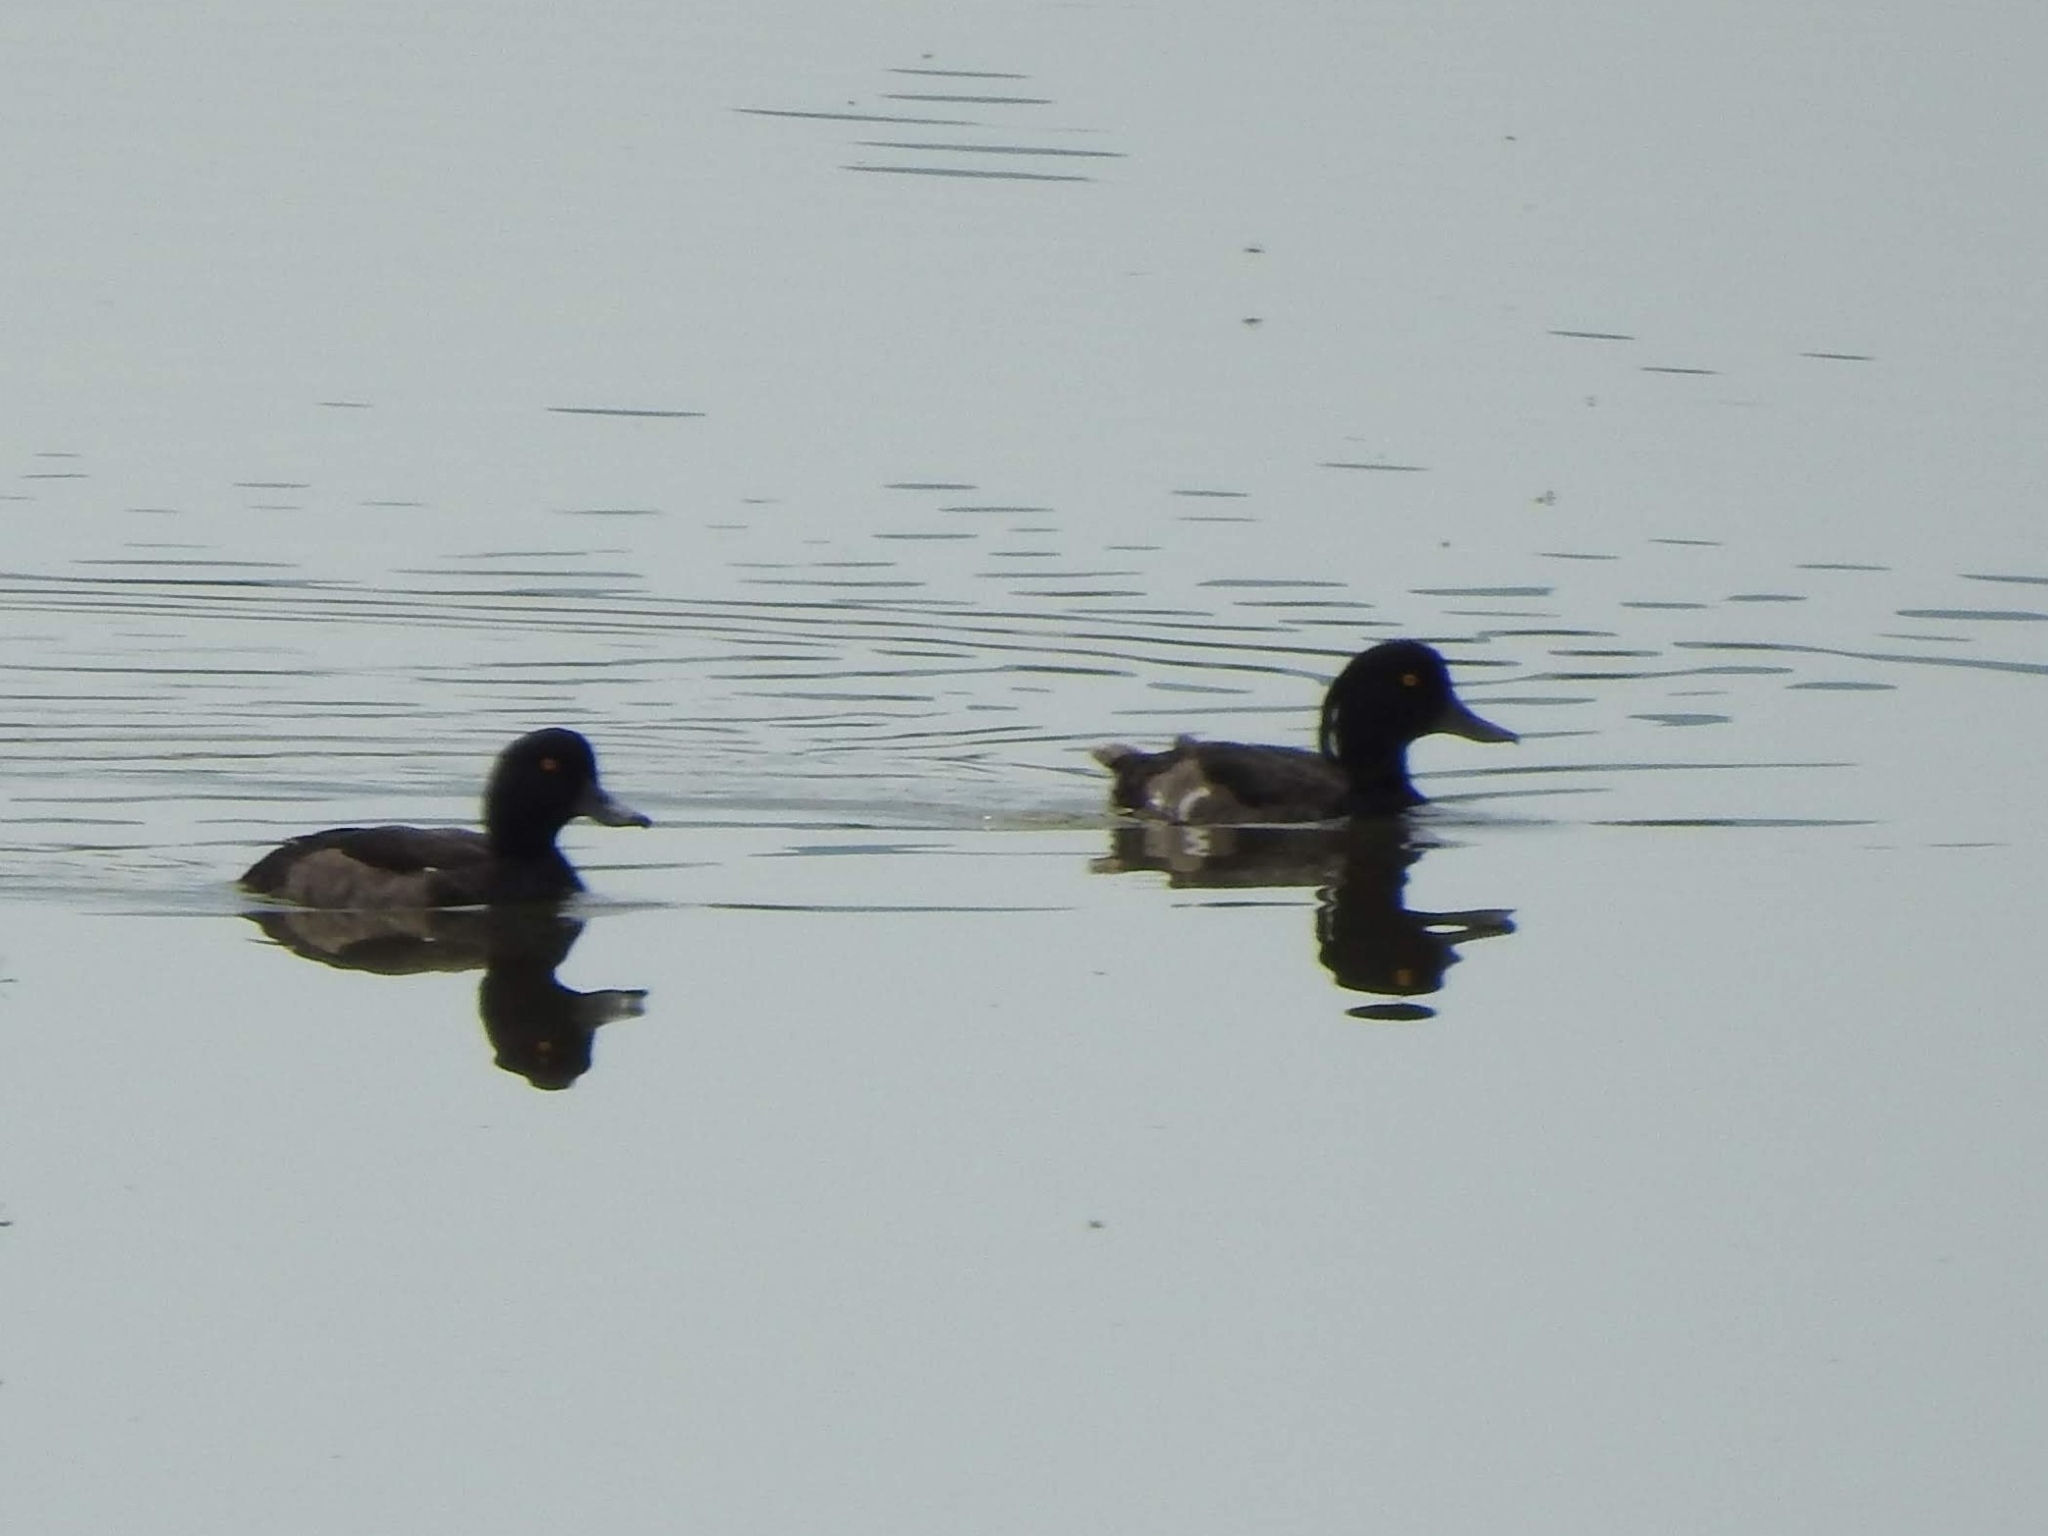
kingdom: Animalia
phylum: Chordata
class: Aves
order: Anseriformes
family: Anatidae
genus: Aythya
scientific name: Aythya fuligula
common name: Tufted duck
